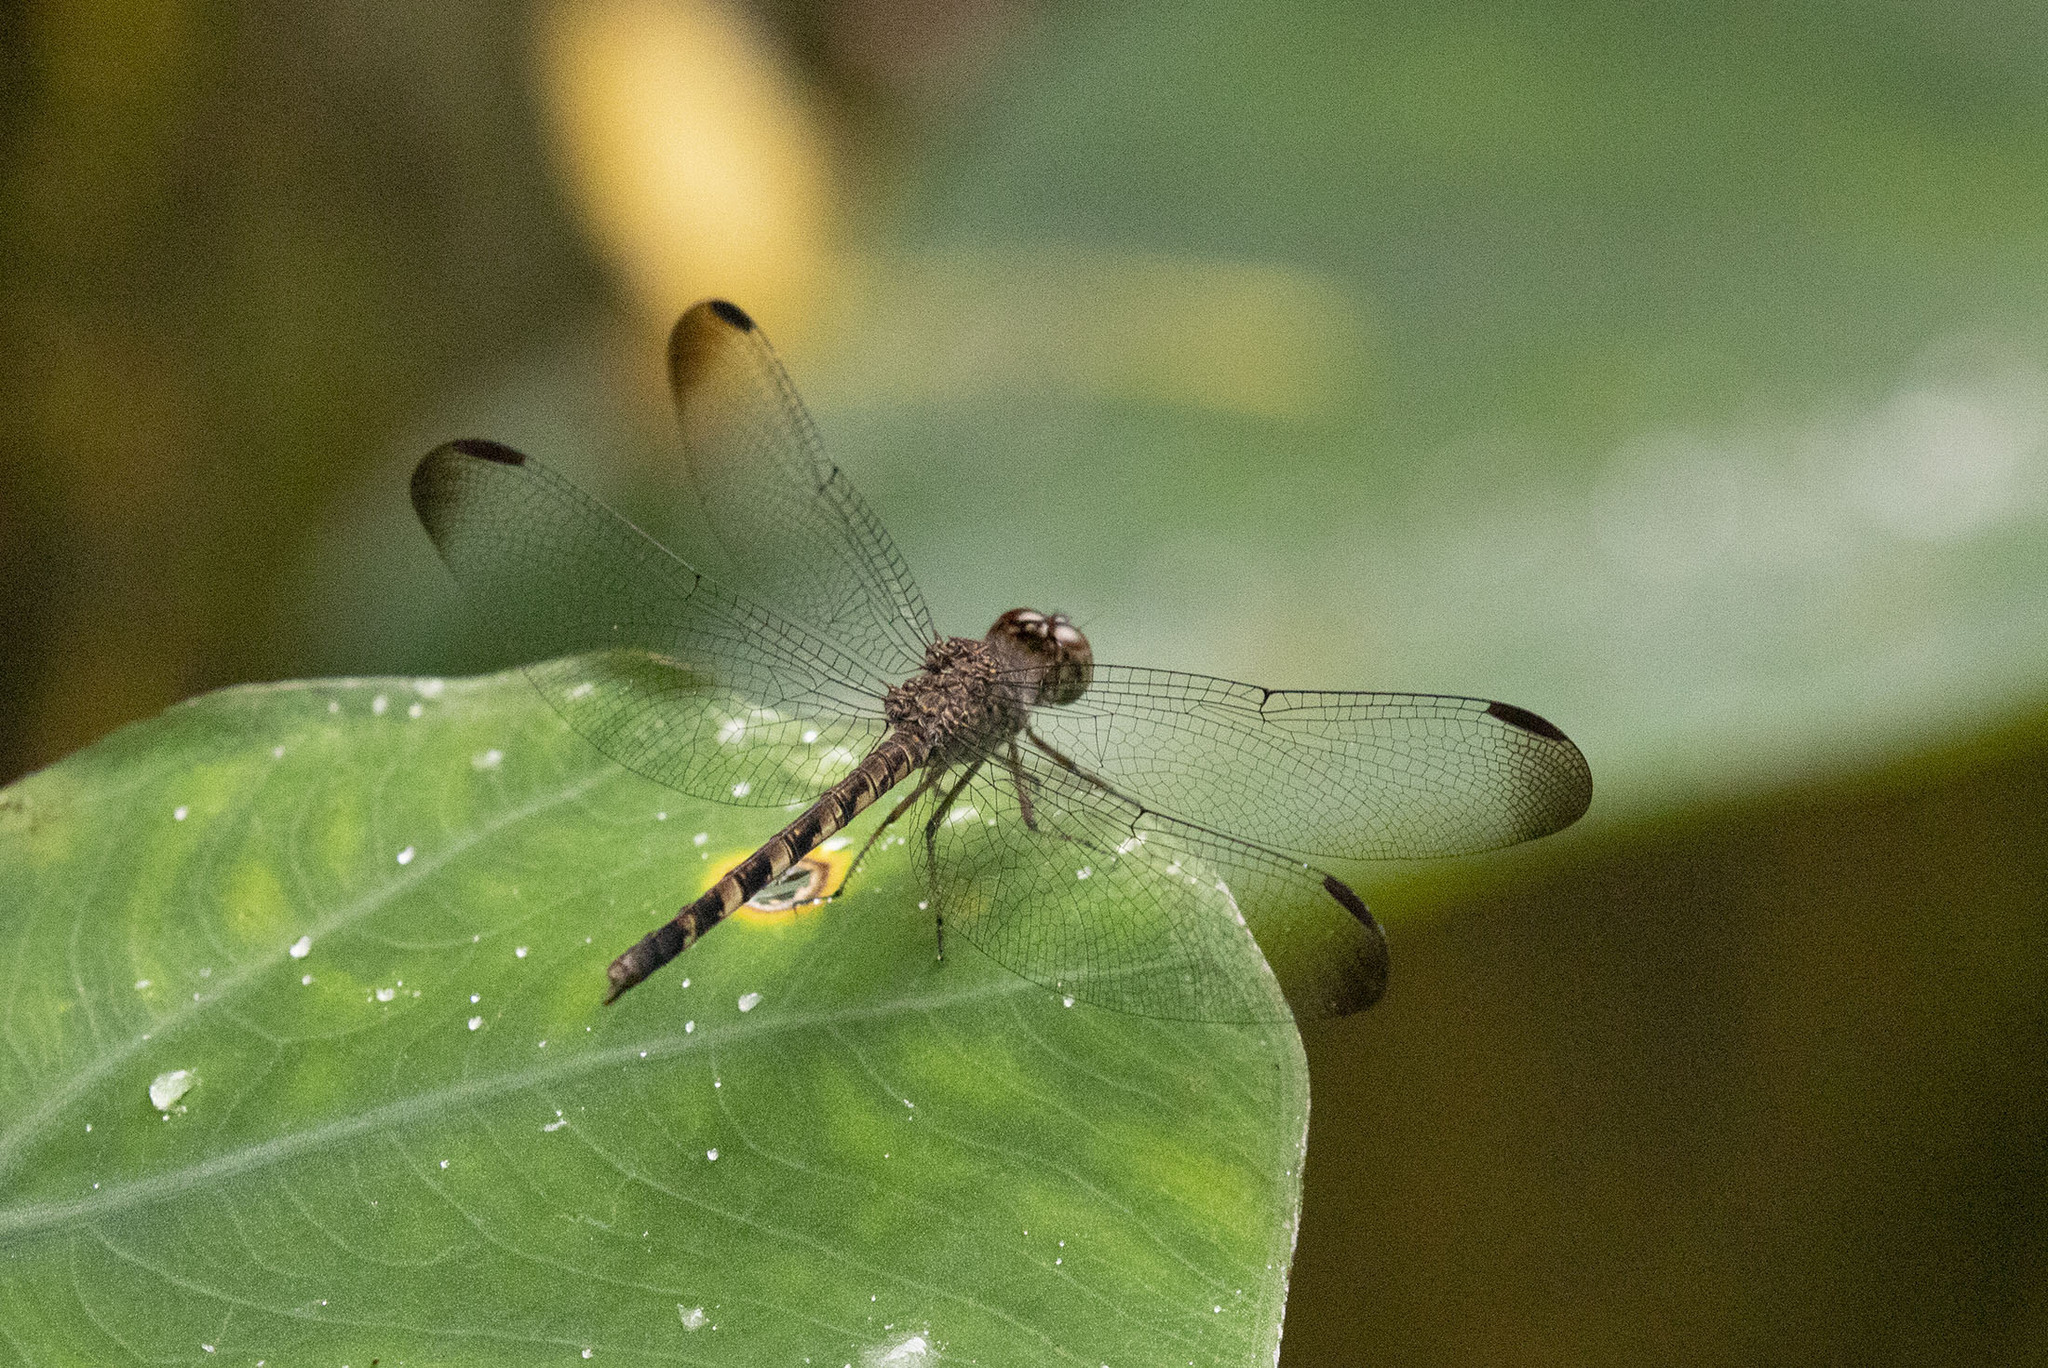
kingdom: Animalia
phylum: Arthropoda
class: Insecta
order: Odonata
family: Libellulidae
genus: Uracis
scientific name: Uracis imbuta
